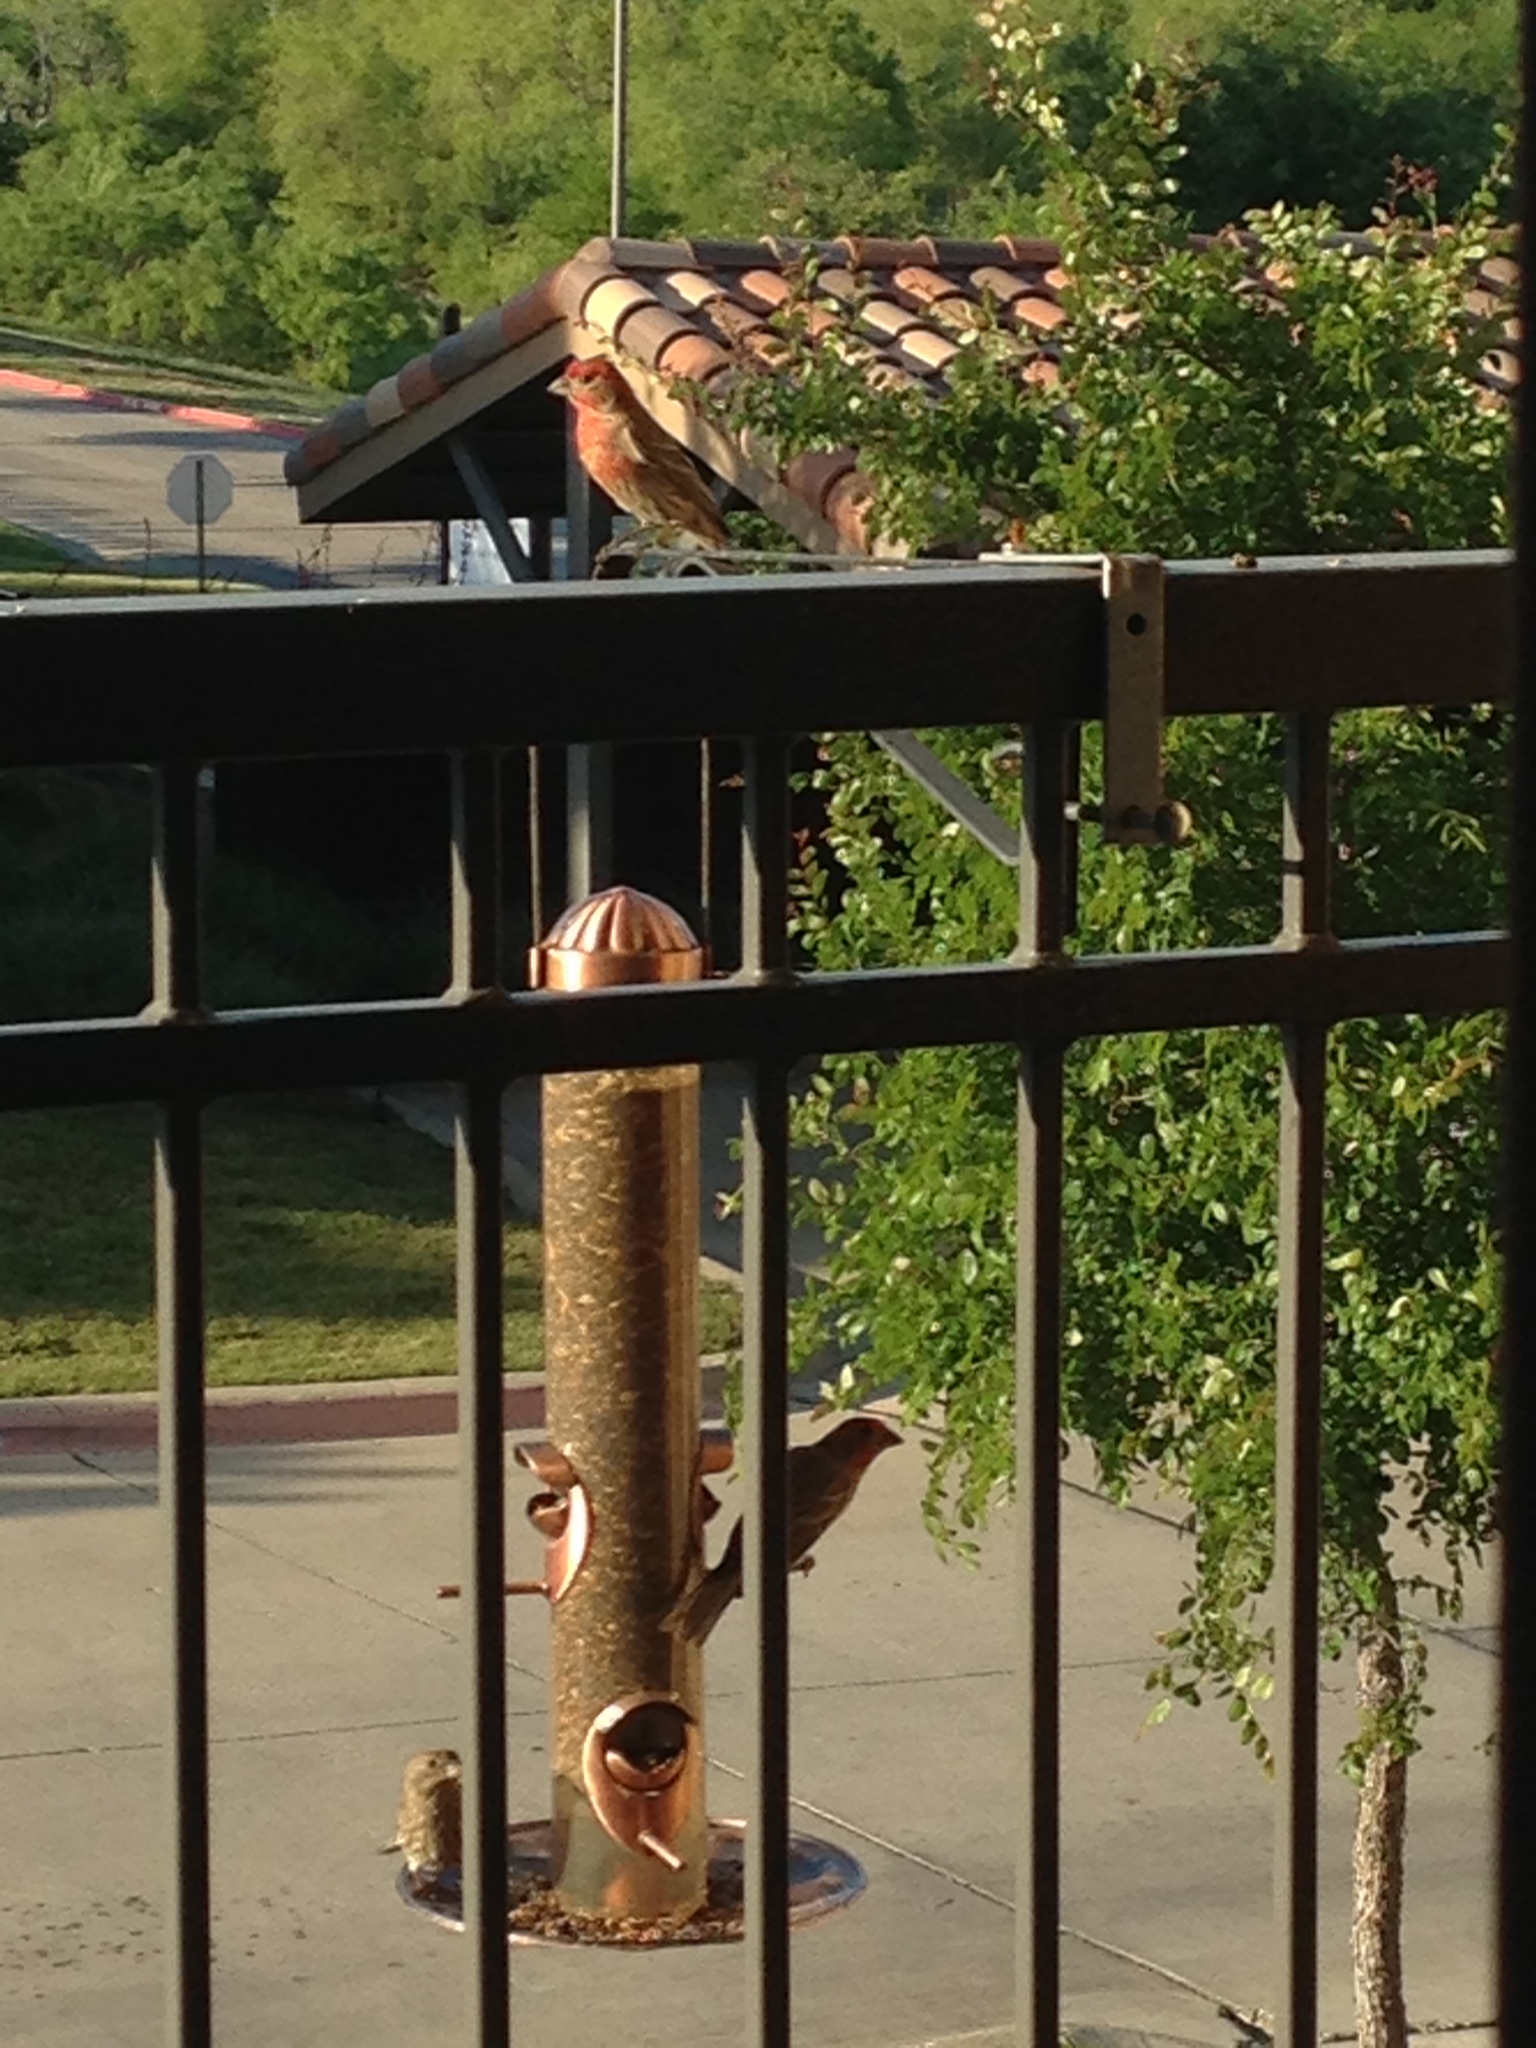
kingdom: Animalia
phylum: Chordata
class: Aves
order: Passeriformes
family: Fringillidae
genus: Haemorhous
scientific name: Haemorhous mexicanus
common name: House finch
